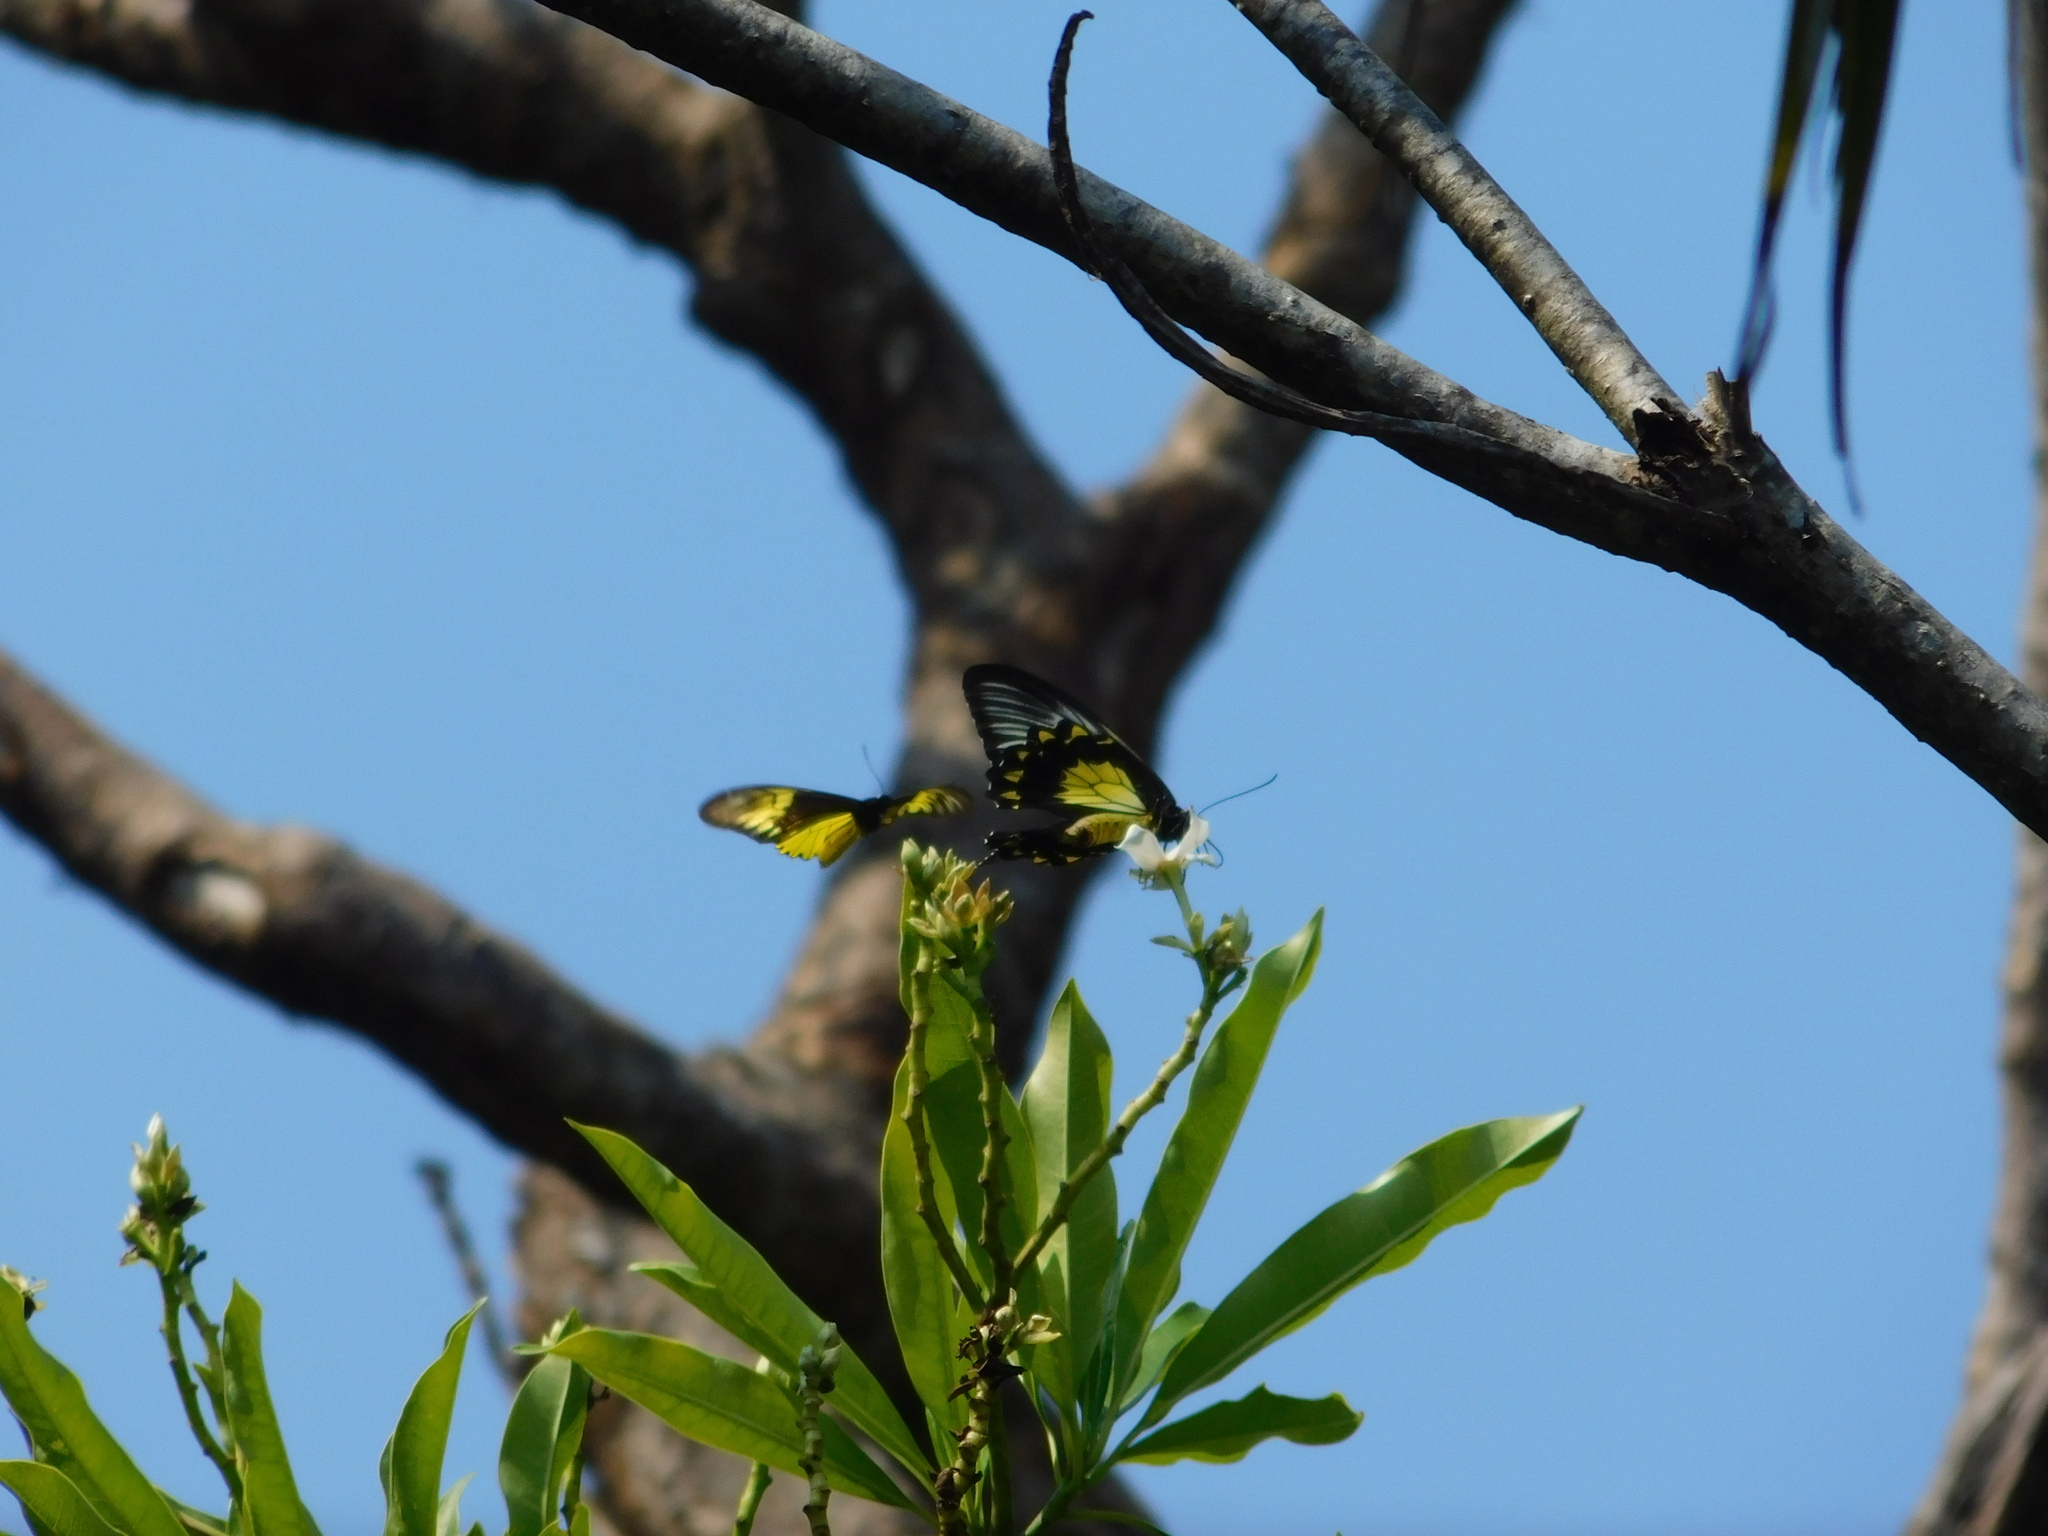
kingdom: Animalia
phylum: Arthropoda
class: Insecta
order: Lepidoptera
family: Papilionidae
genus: Troides
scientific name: Troides amphrysus
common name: Malay birdwing
